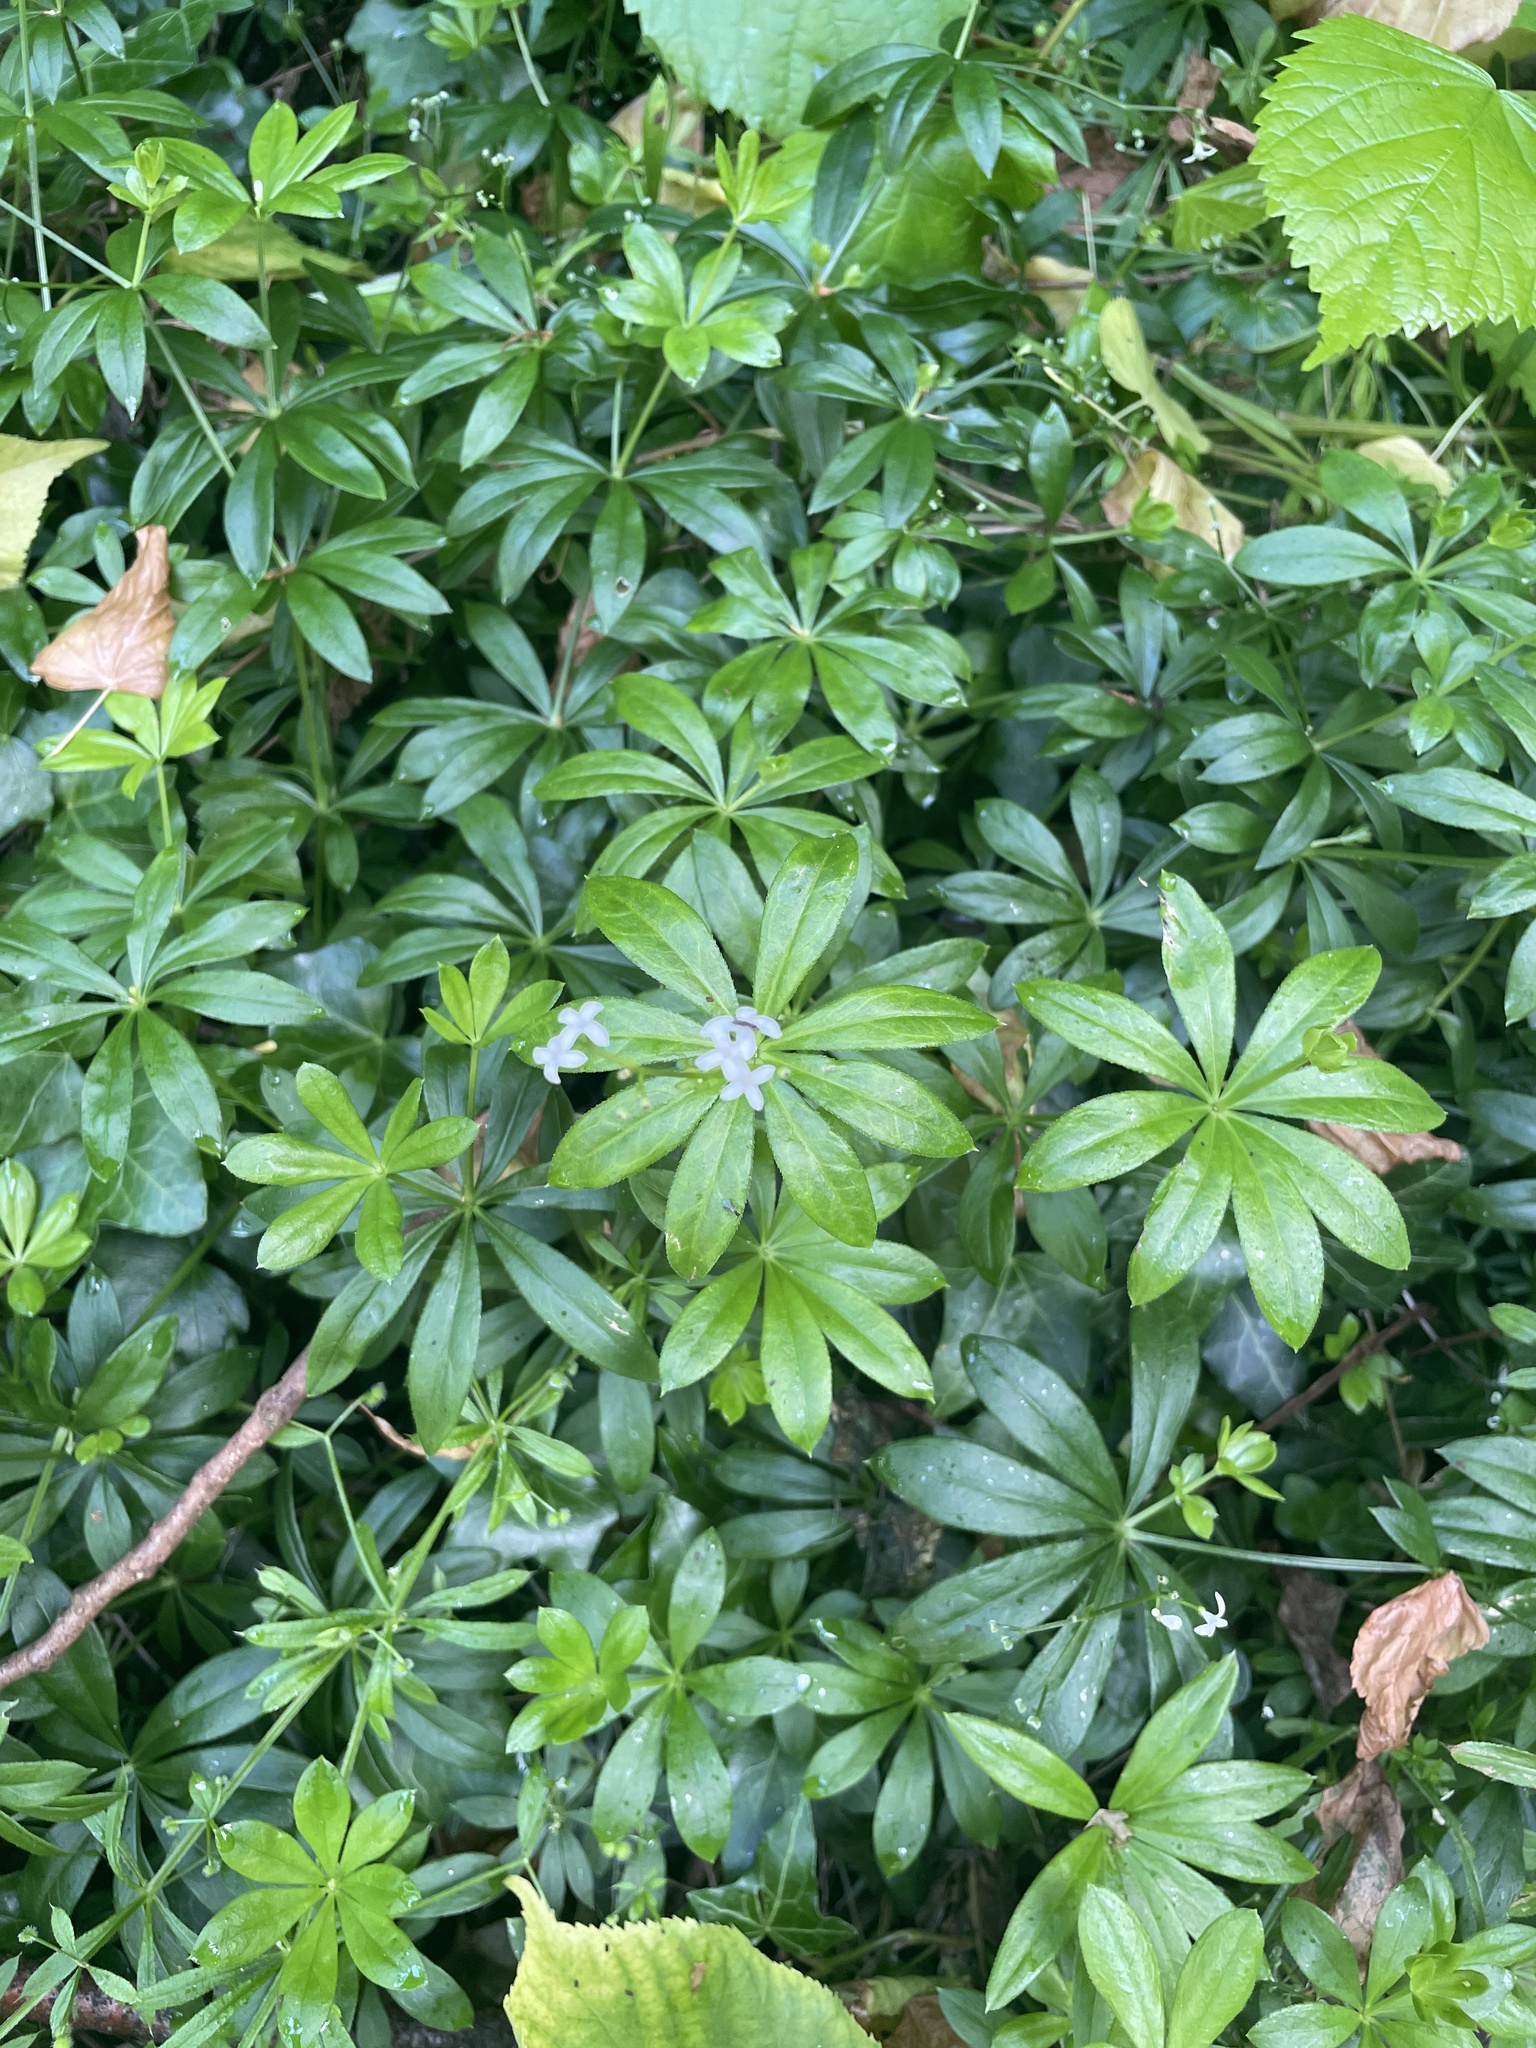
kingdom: Plantae
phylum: Tracheophyta
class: Magnoliopsida
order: Gentianales
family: Rubiaceae
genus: Galium
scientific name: Galium odoratum
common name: Sweet woodruff
